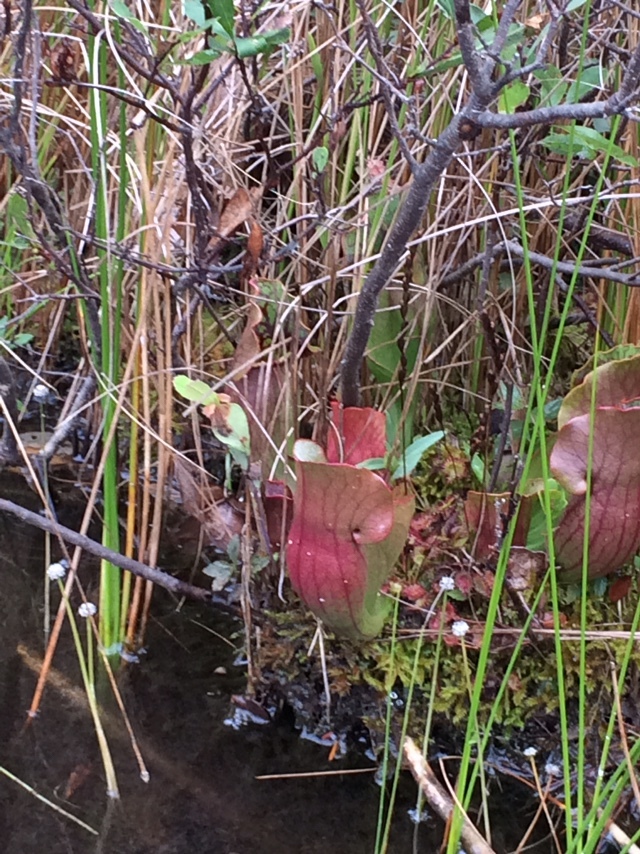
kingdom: Plantae
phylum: Tracheophyta
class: Magnoliopsida
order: Ericales
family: Sarraceniaceae
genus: Sarracenia
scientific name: Sarracenia purpurea
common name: Pitcherplant
